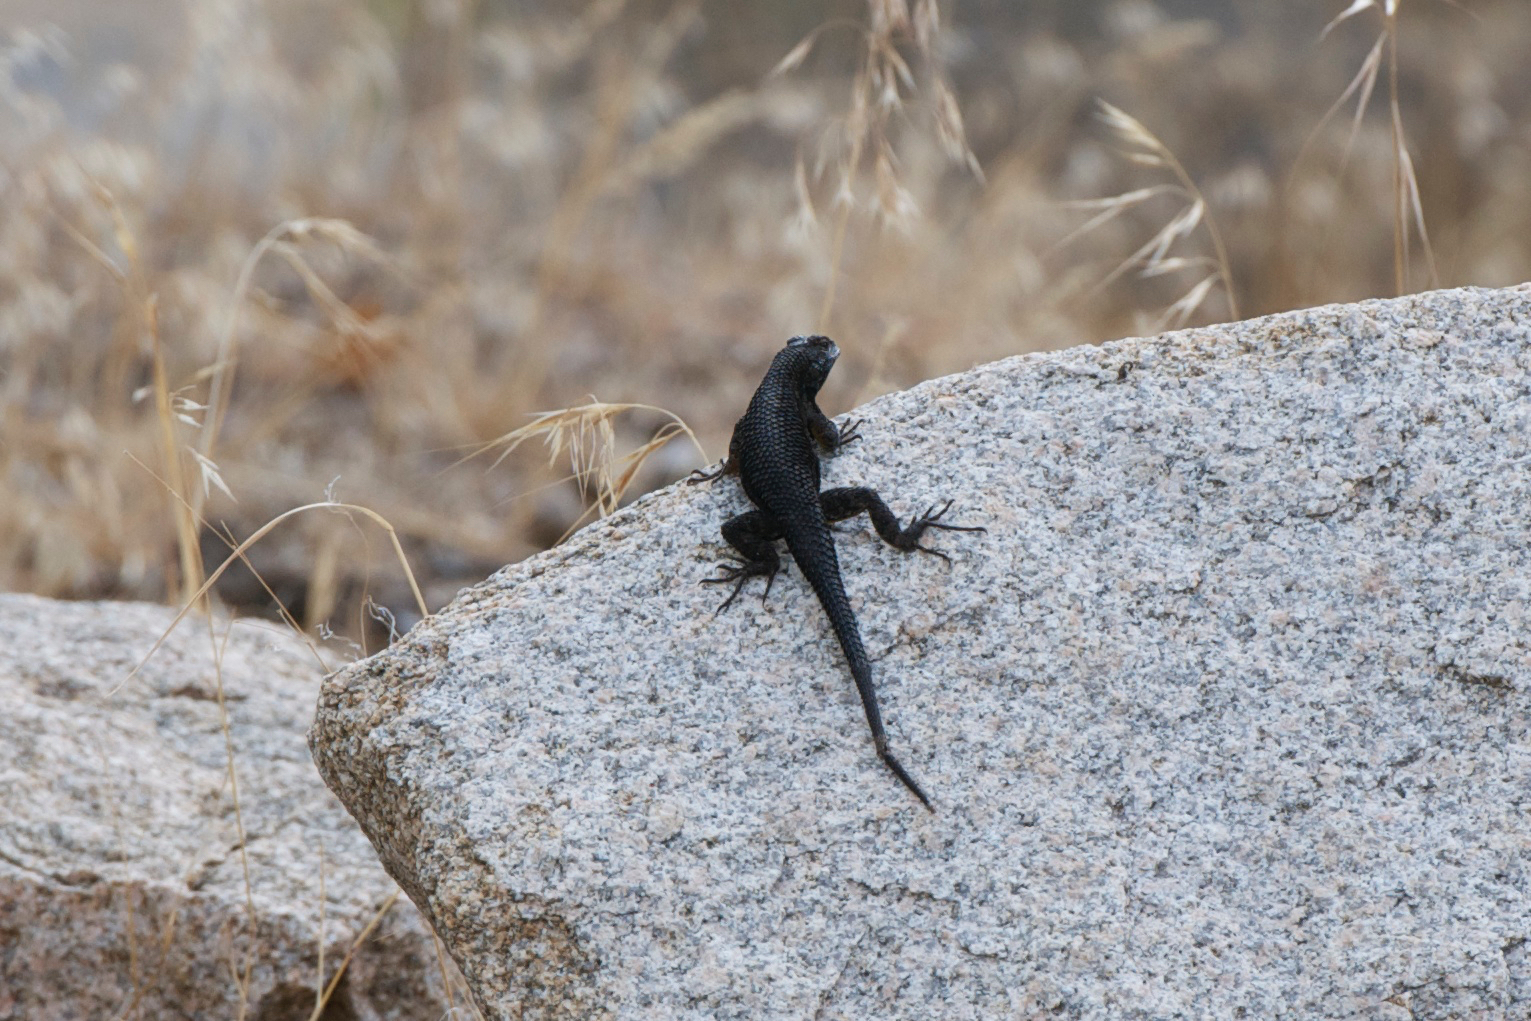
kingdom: Animalia
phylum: Chordata
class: Squamata
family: Phrynosomatidae
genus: Sceloporus
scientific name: Sceloporus occidentalis
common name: Western fence lizard
